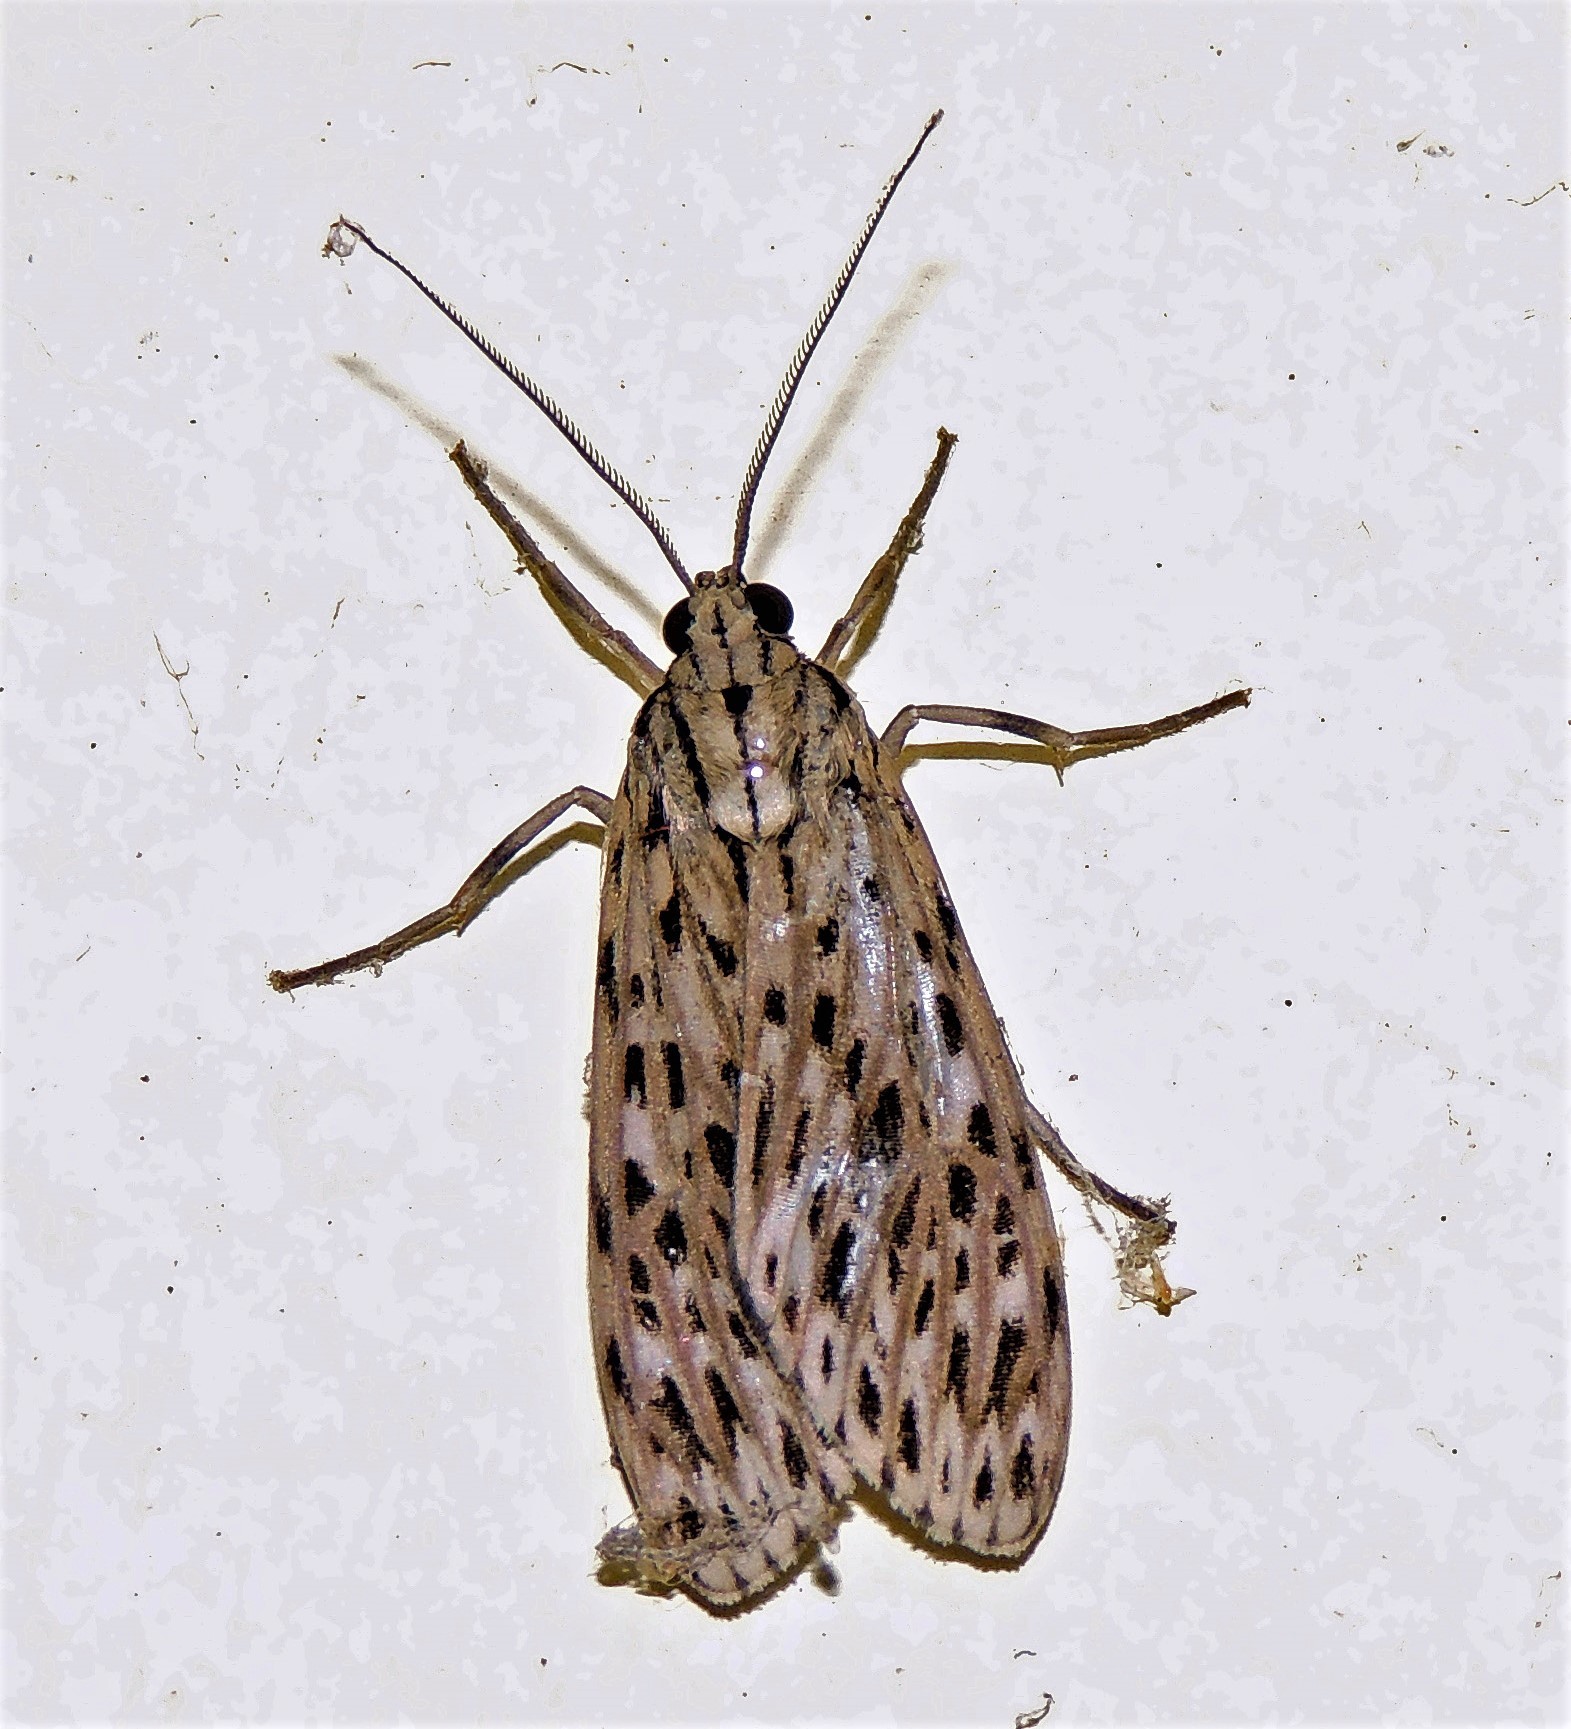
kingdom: Animalia
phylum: Arthropoda
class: Insecta
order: Lepidoptera
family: Erebidae
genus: Euceriodes
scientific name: Euceriodes pallada
